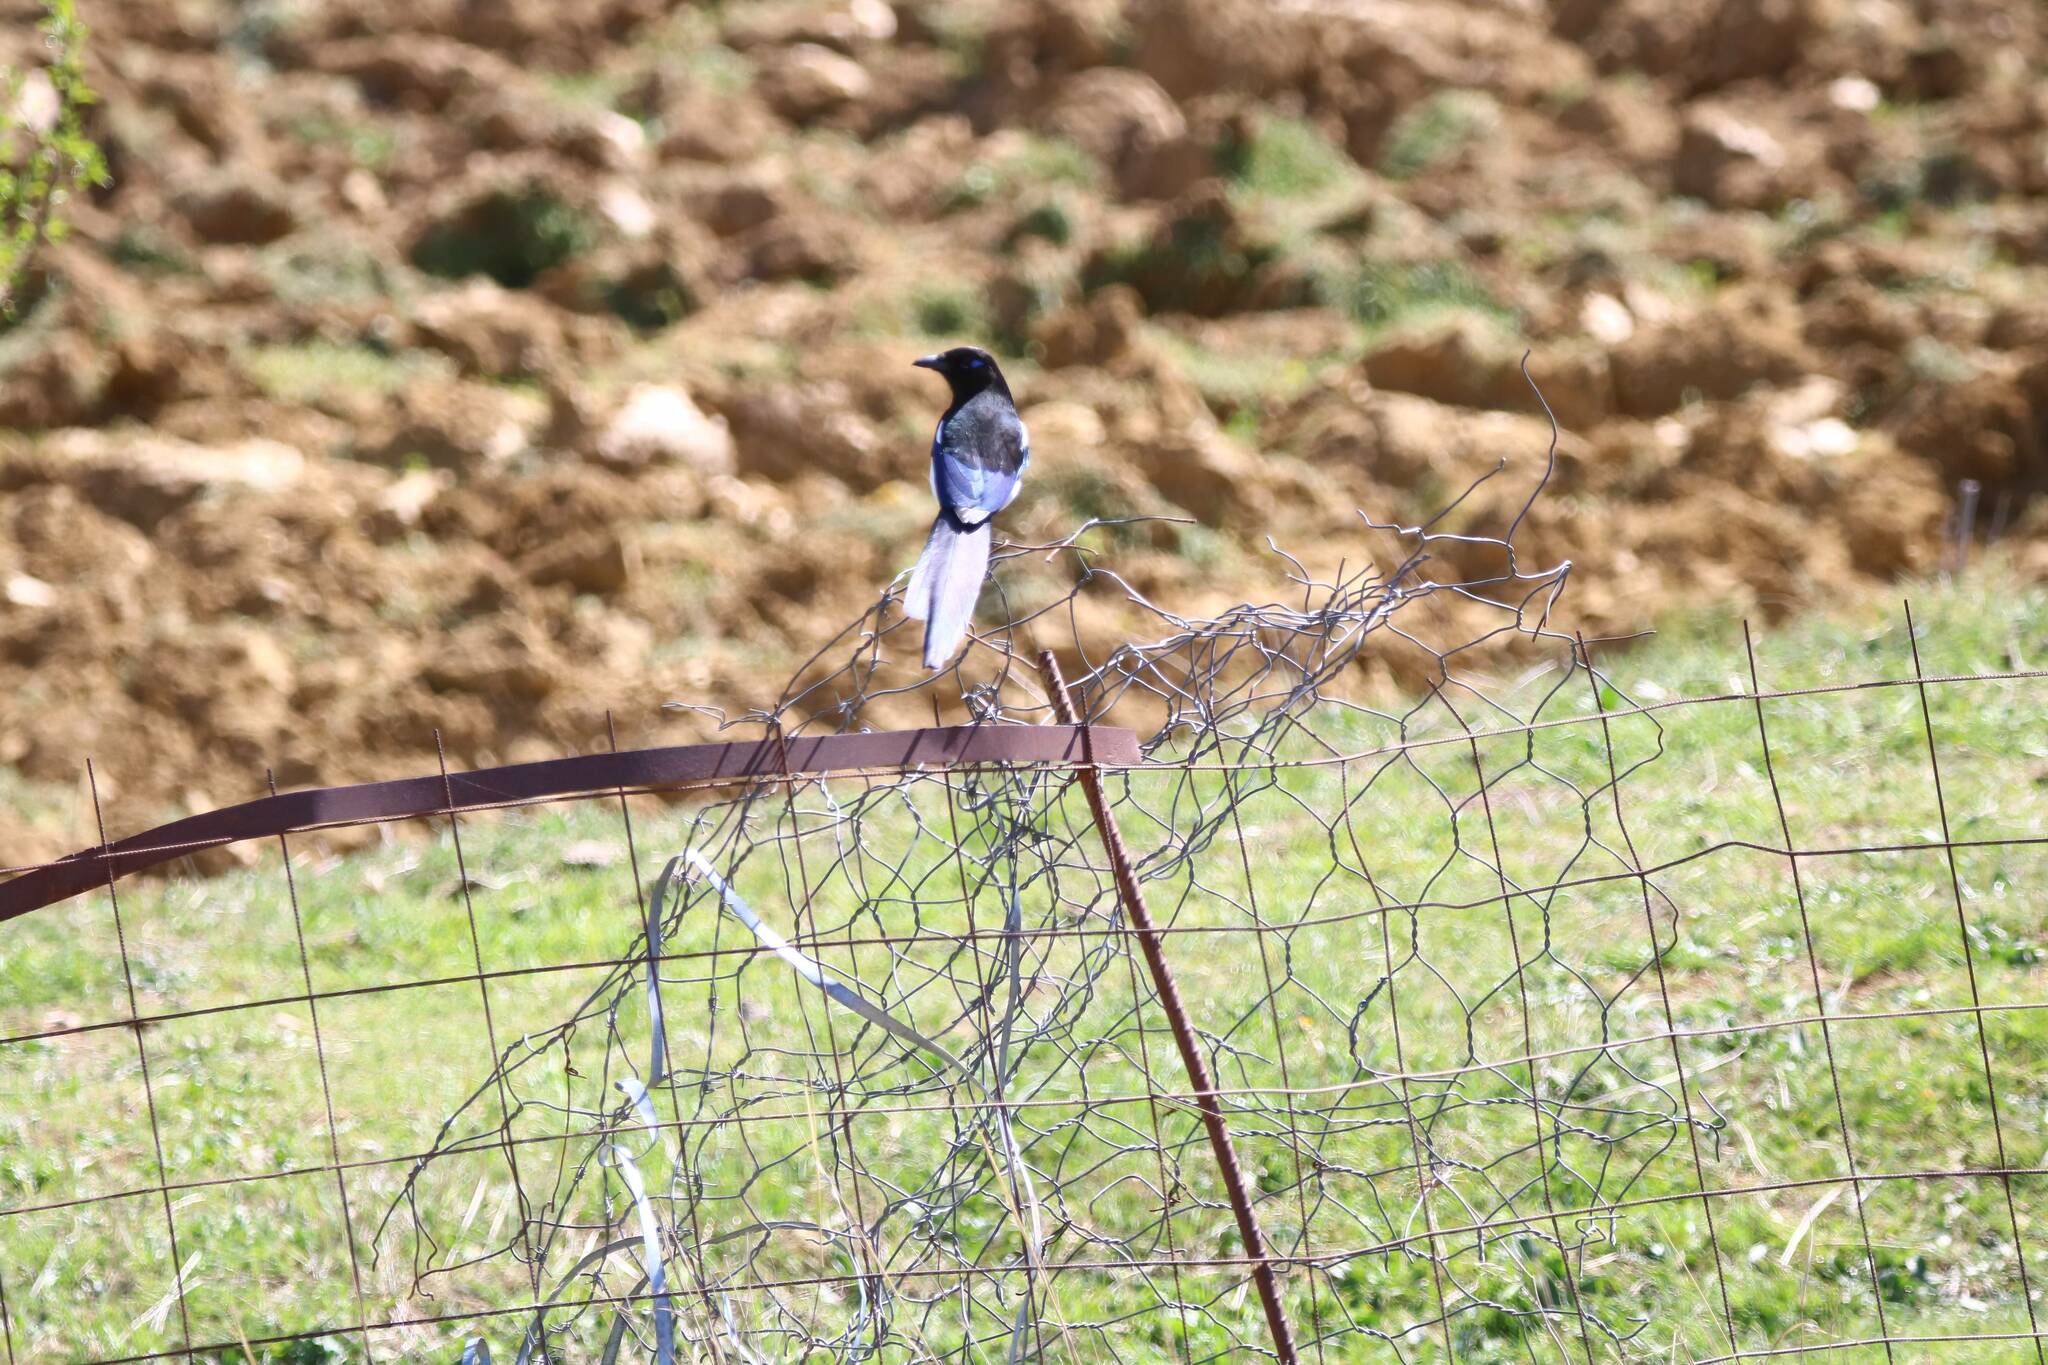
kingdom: Animalia
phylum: Chordata
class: Aves
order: Passeriformes
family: Corvidae
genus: Pica
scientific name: Pica mauritanica
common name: Maghreb magpie
